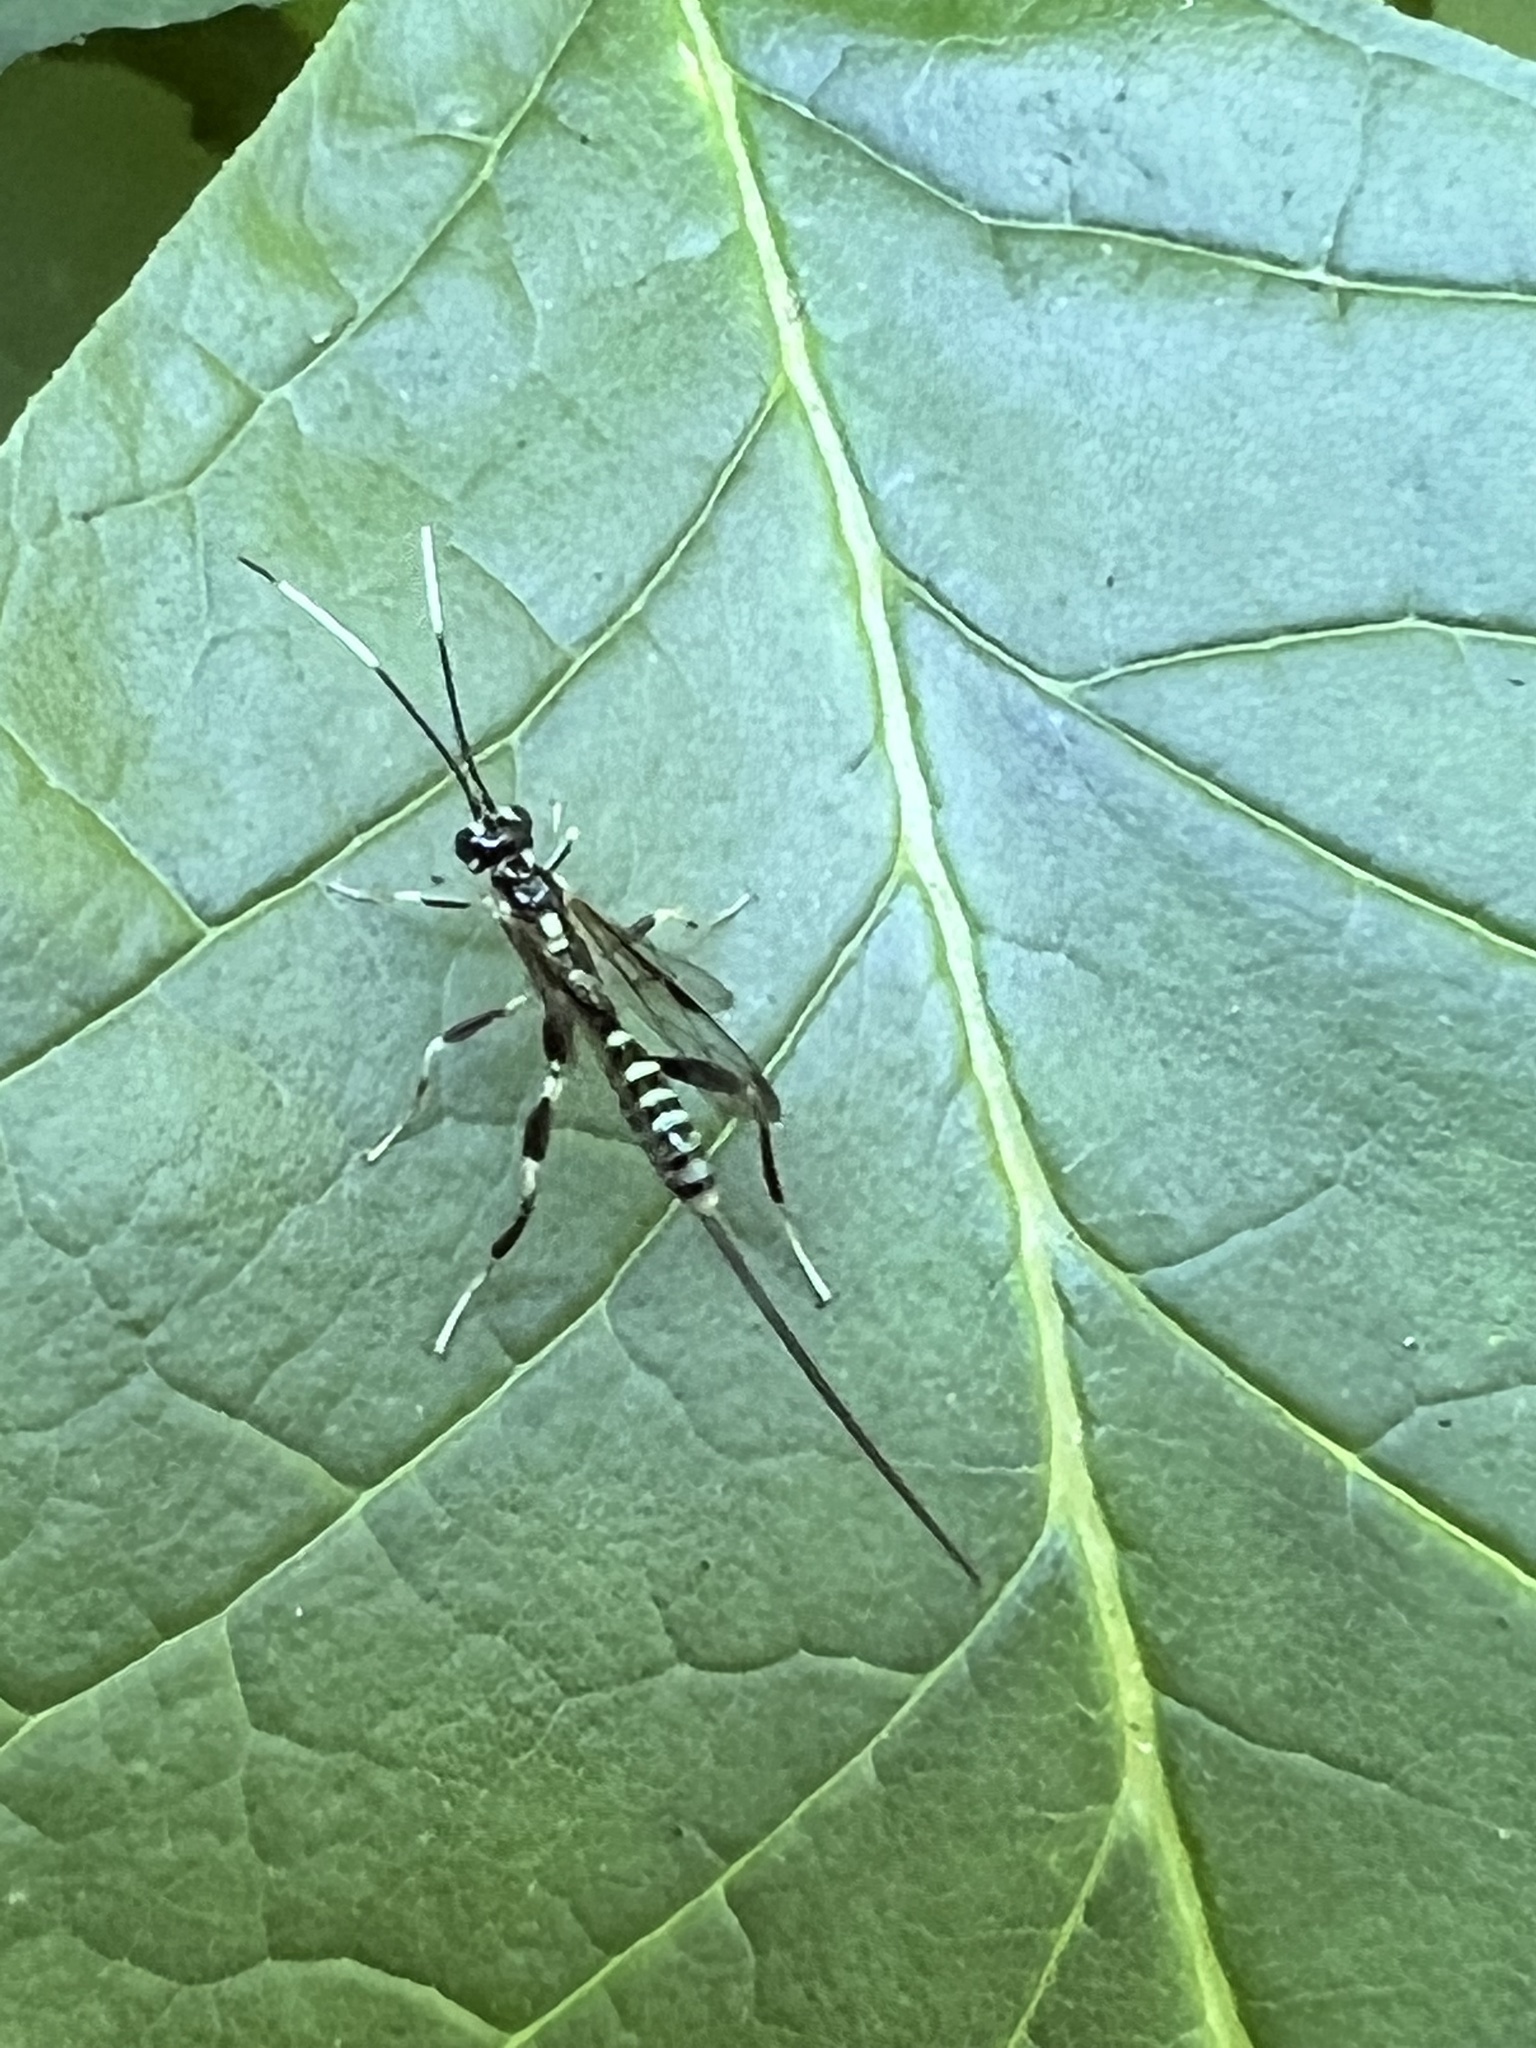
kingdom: Animalia
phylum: Arthropoda
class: Insecta
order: Hymenoptera
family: Ichneumonidae
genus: Arotes
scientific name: Arotes amoenus
